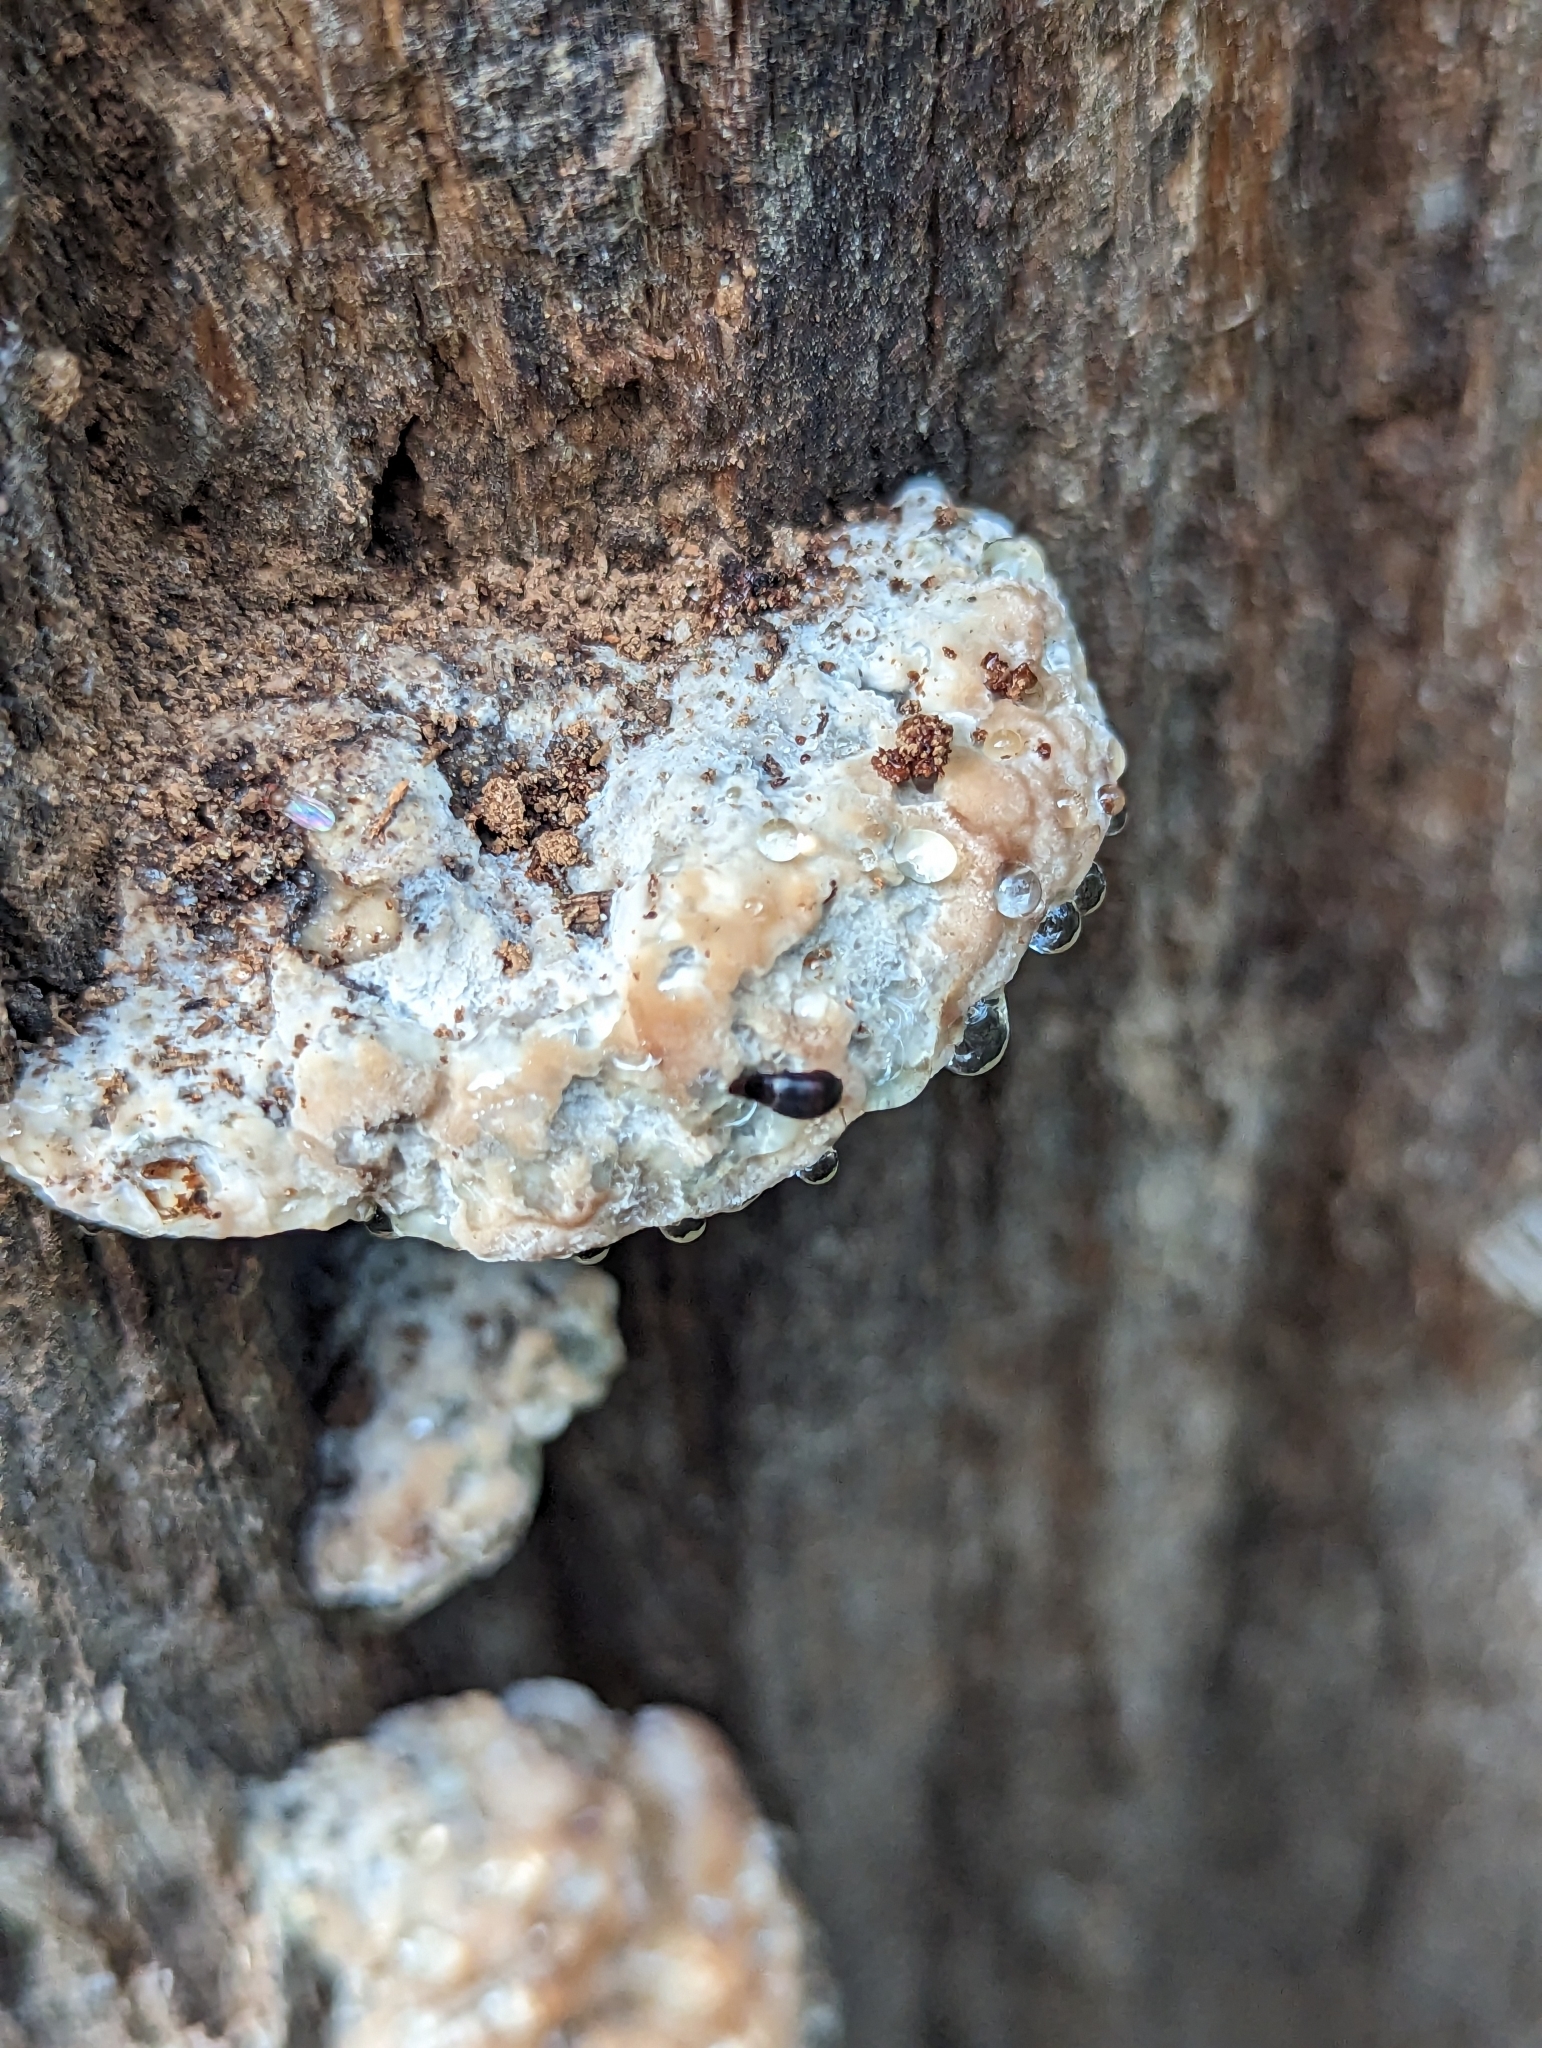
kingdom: Fungi
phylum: Basidiomycota
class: Agaricomycetes
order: Polyporales
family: Fomitopsidaceae
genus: Niveoporofomes
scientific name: Niveoporofomes spraguei
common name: Green cheese polypore
